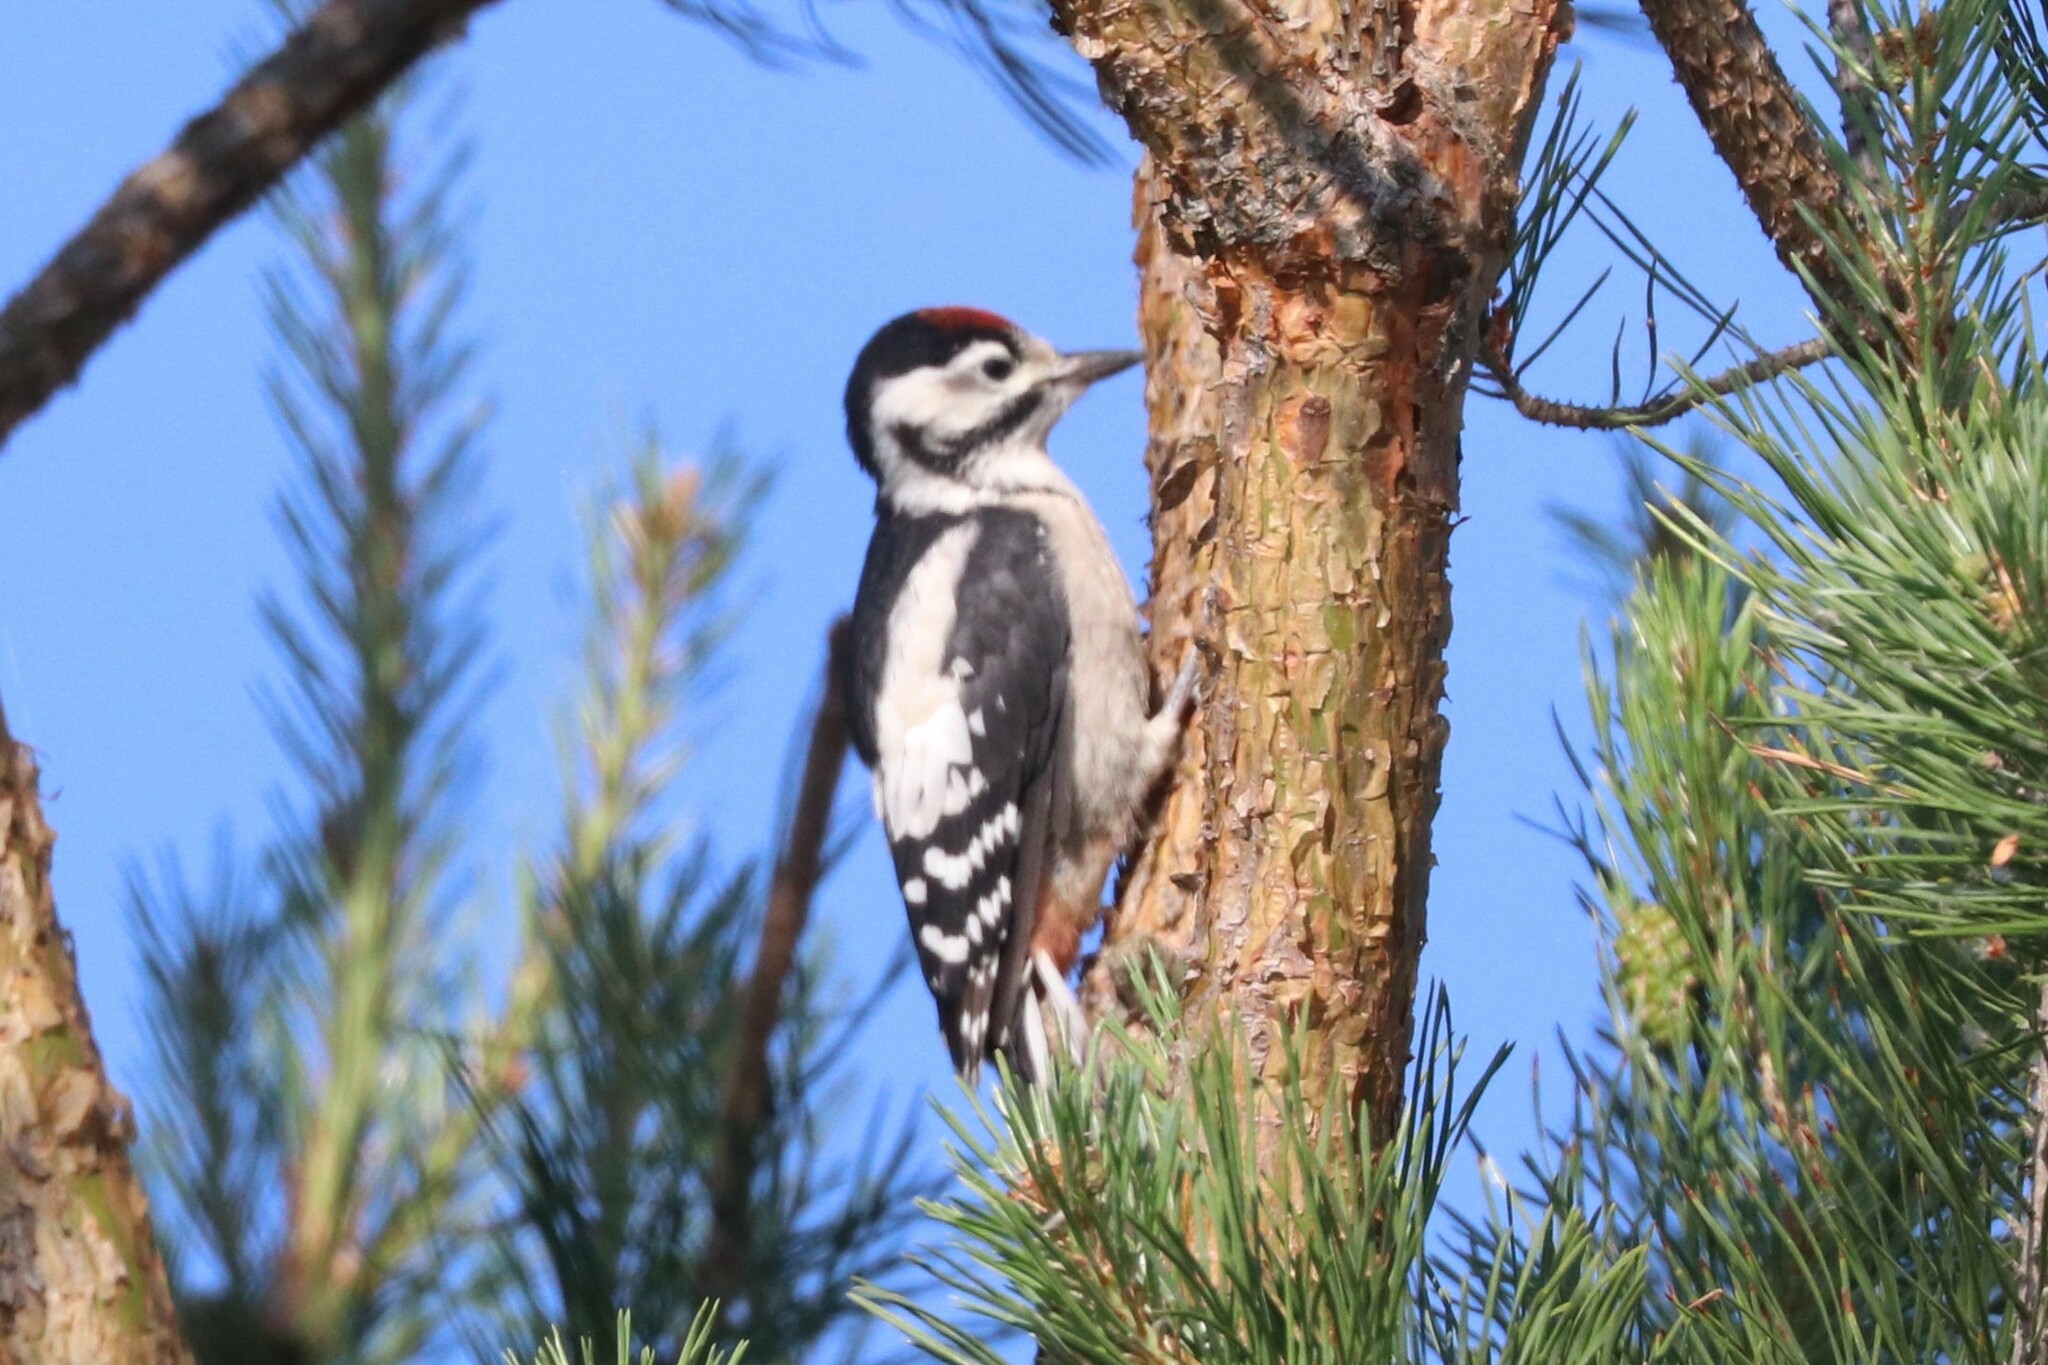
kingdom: Animalia
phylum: Chordata
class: Aves
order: Piciformes
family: Picidae
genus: Dendrocopos
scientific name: Dendrocopos major
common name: Great spotted woodpecker
